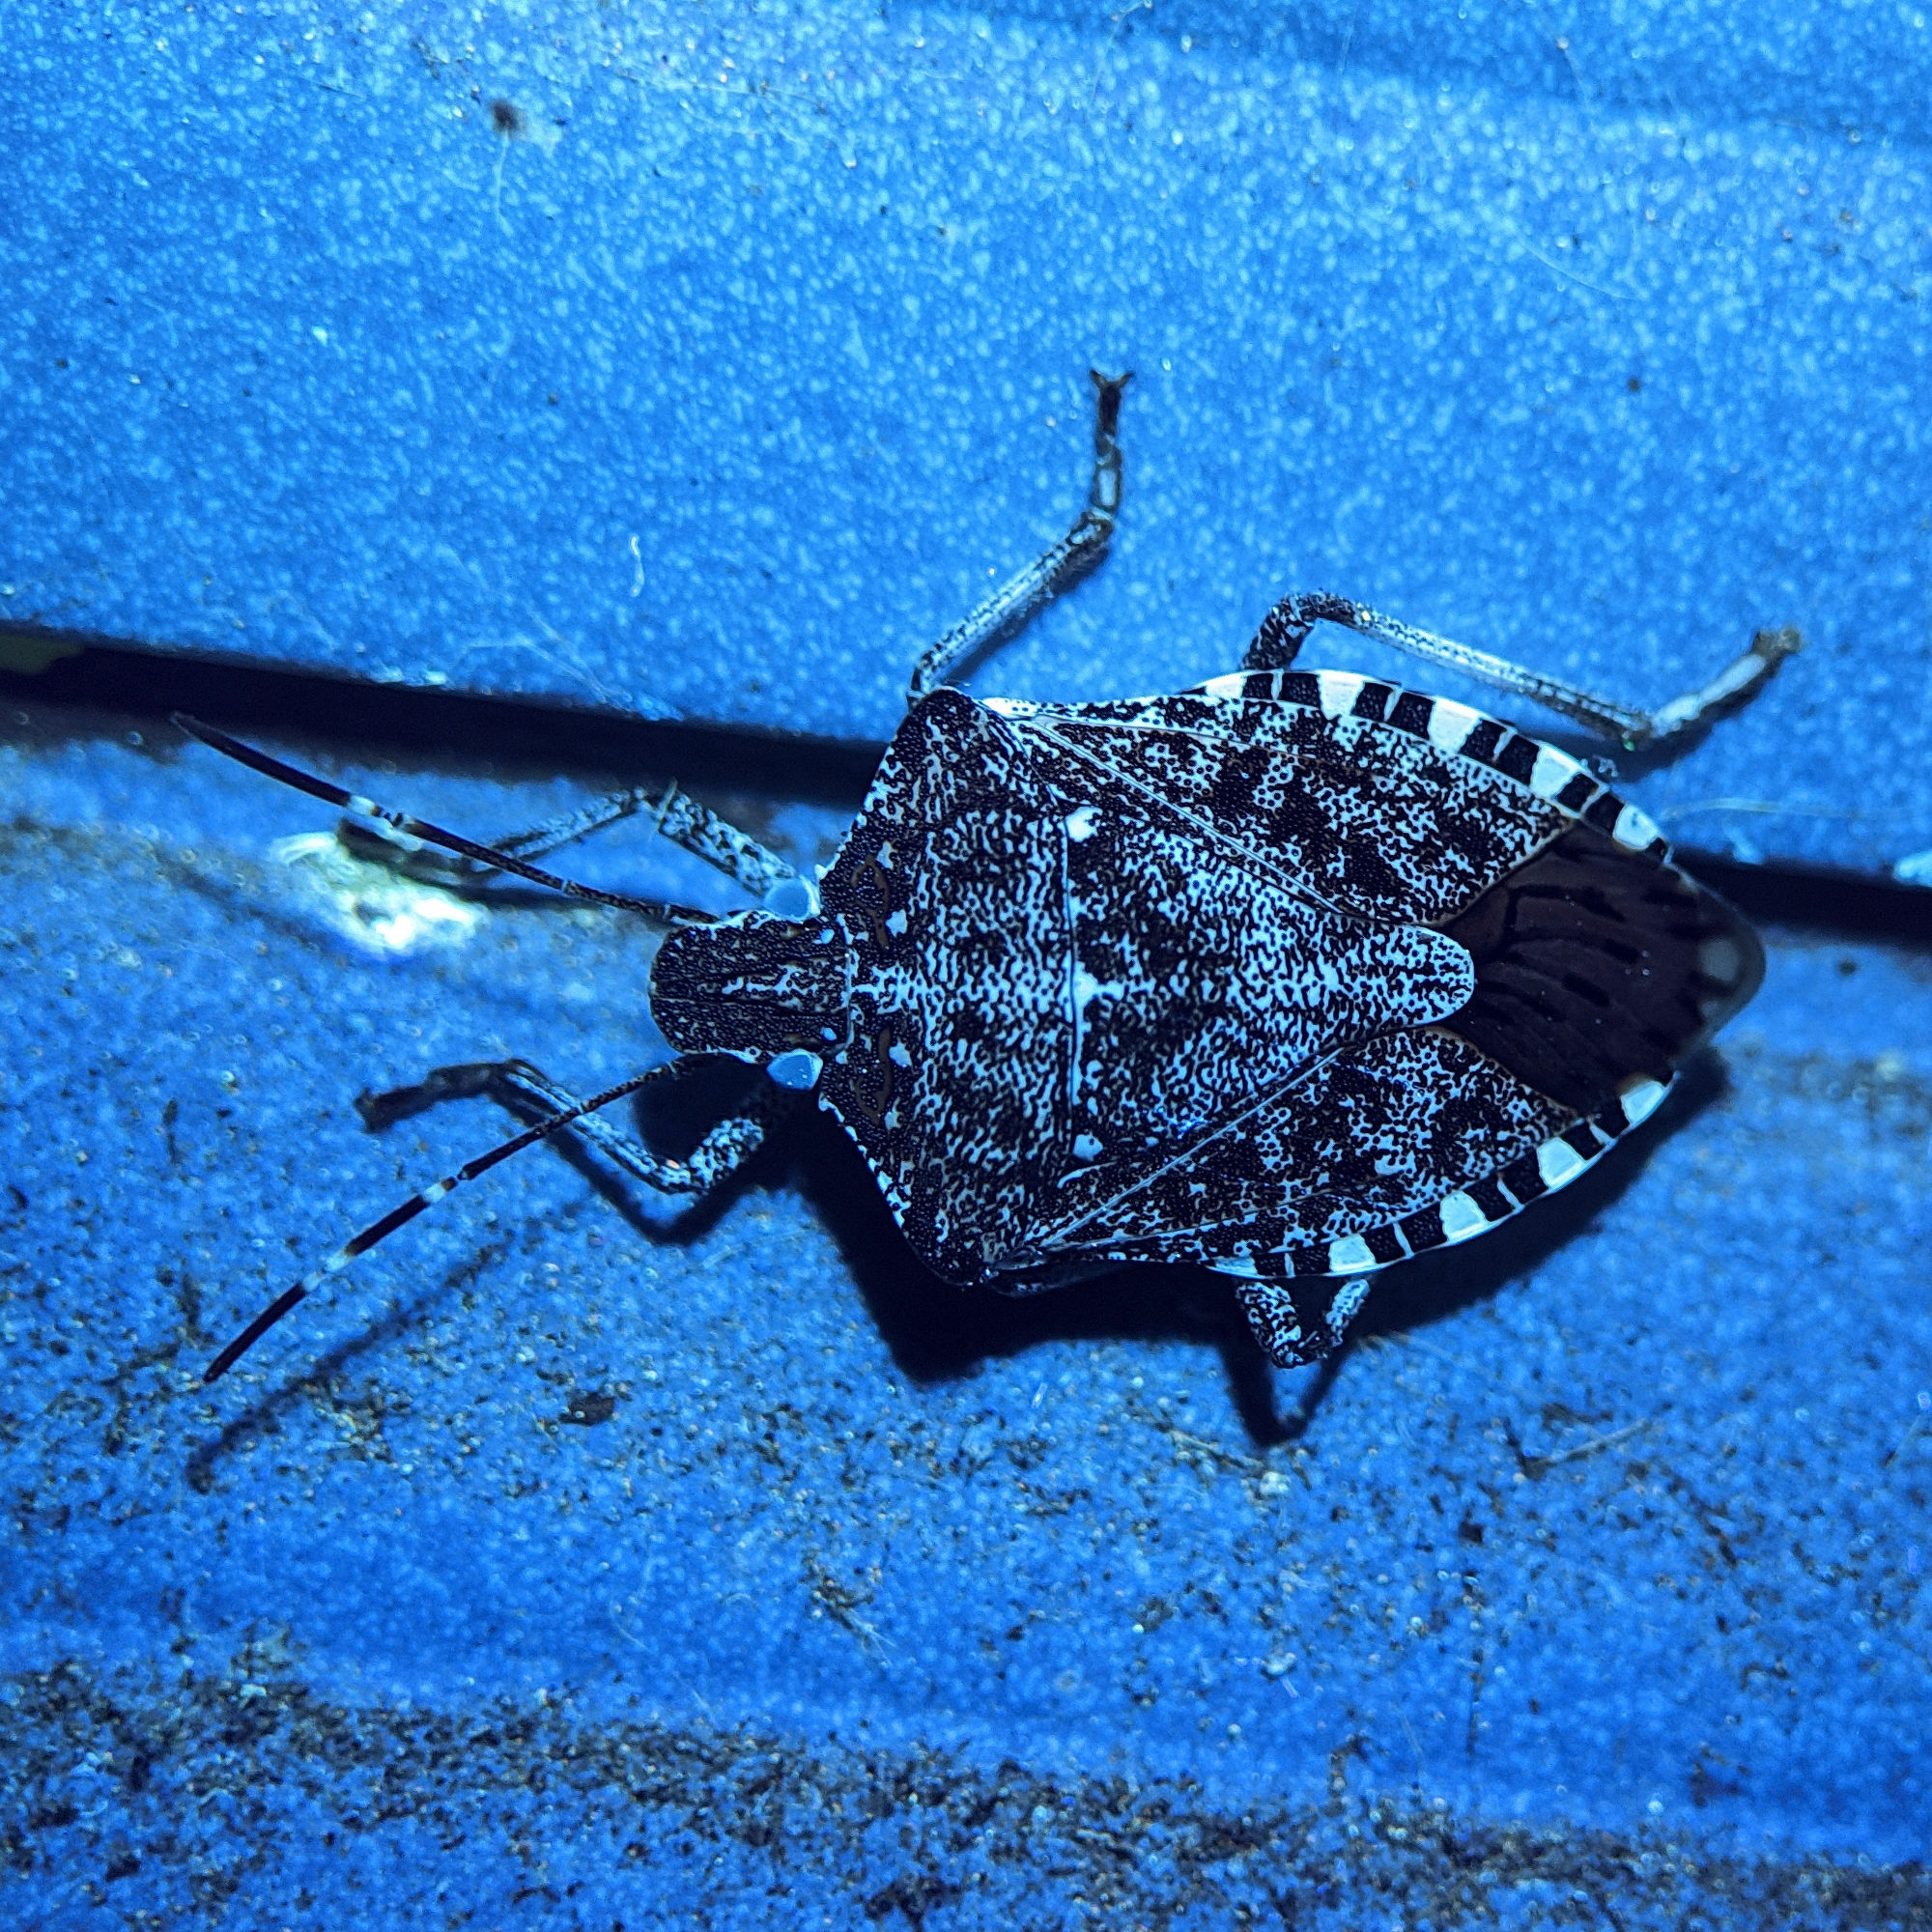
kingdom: Animalia
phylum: Arthropoda
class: Insecta
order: Hemiptera
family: Pentatomidae
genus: Halyomorpha
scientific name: Halyomorpha halys
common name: Brown marmorated stink bug
